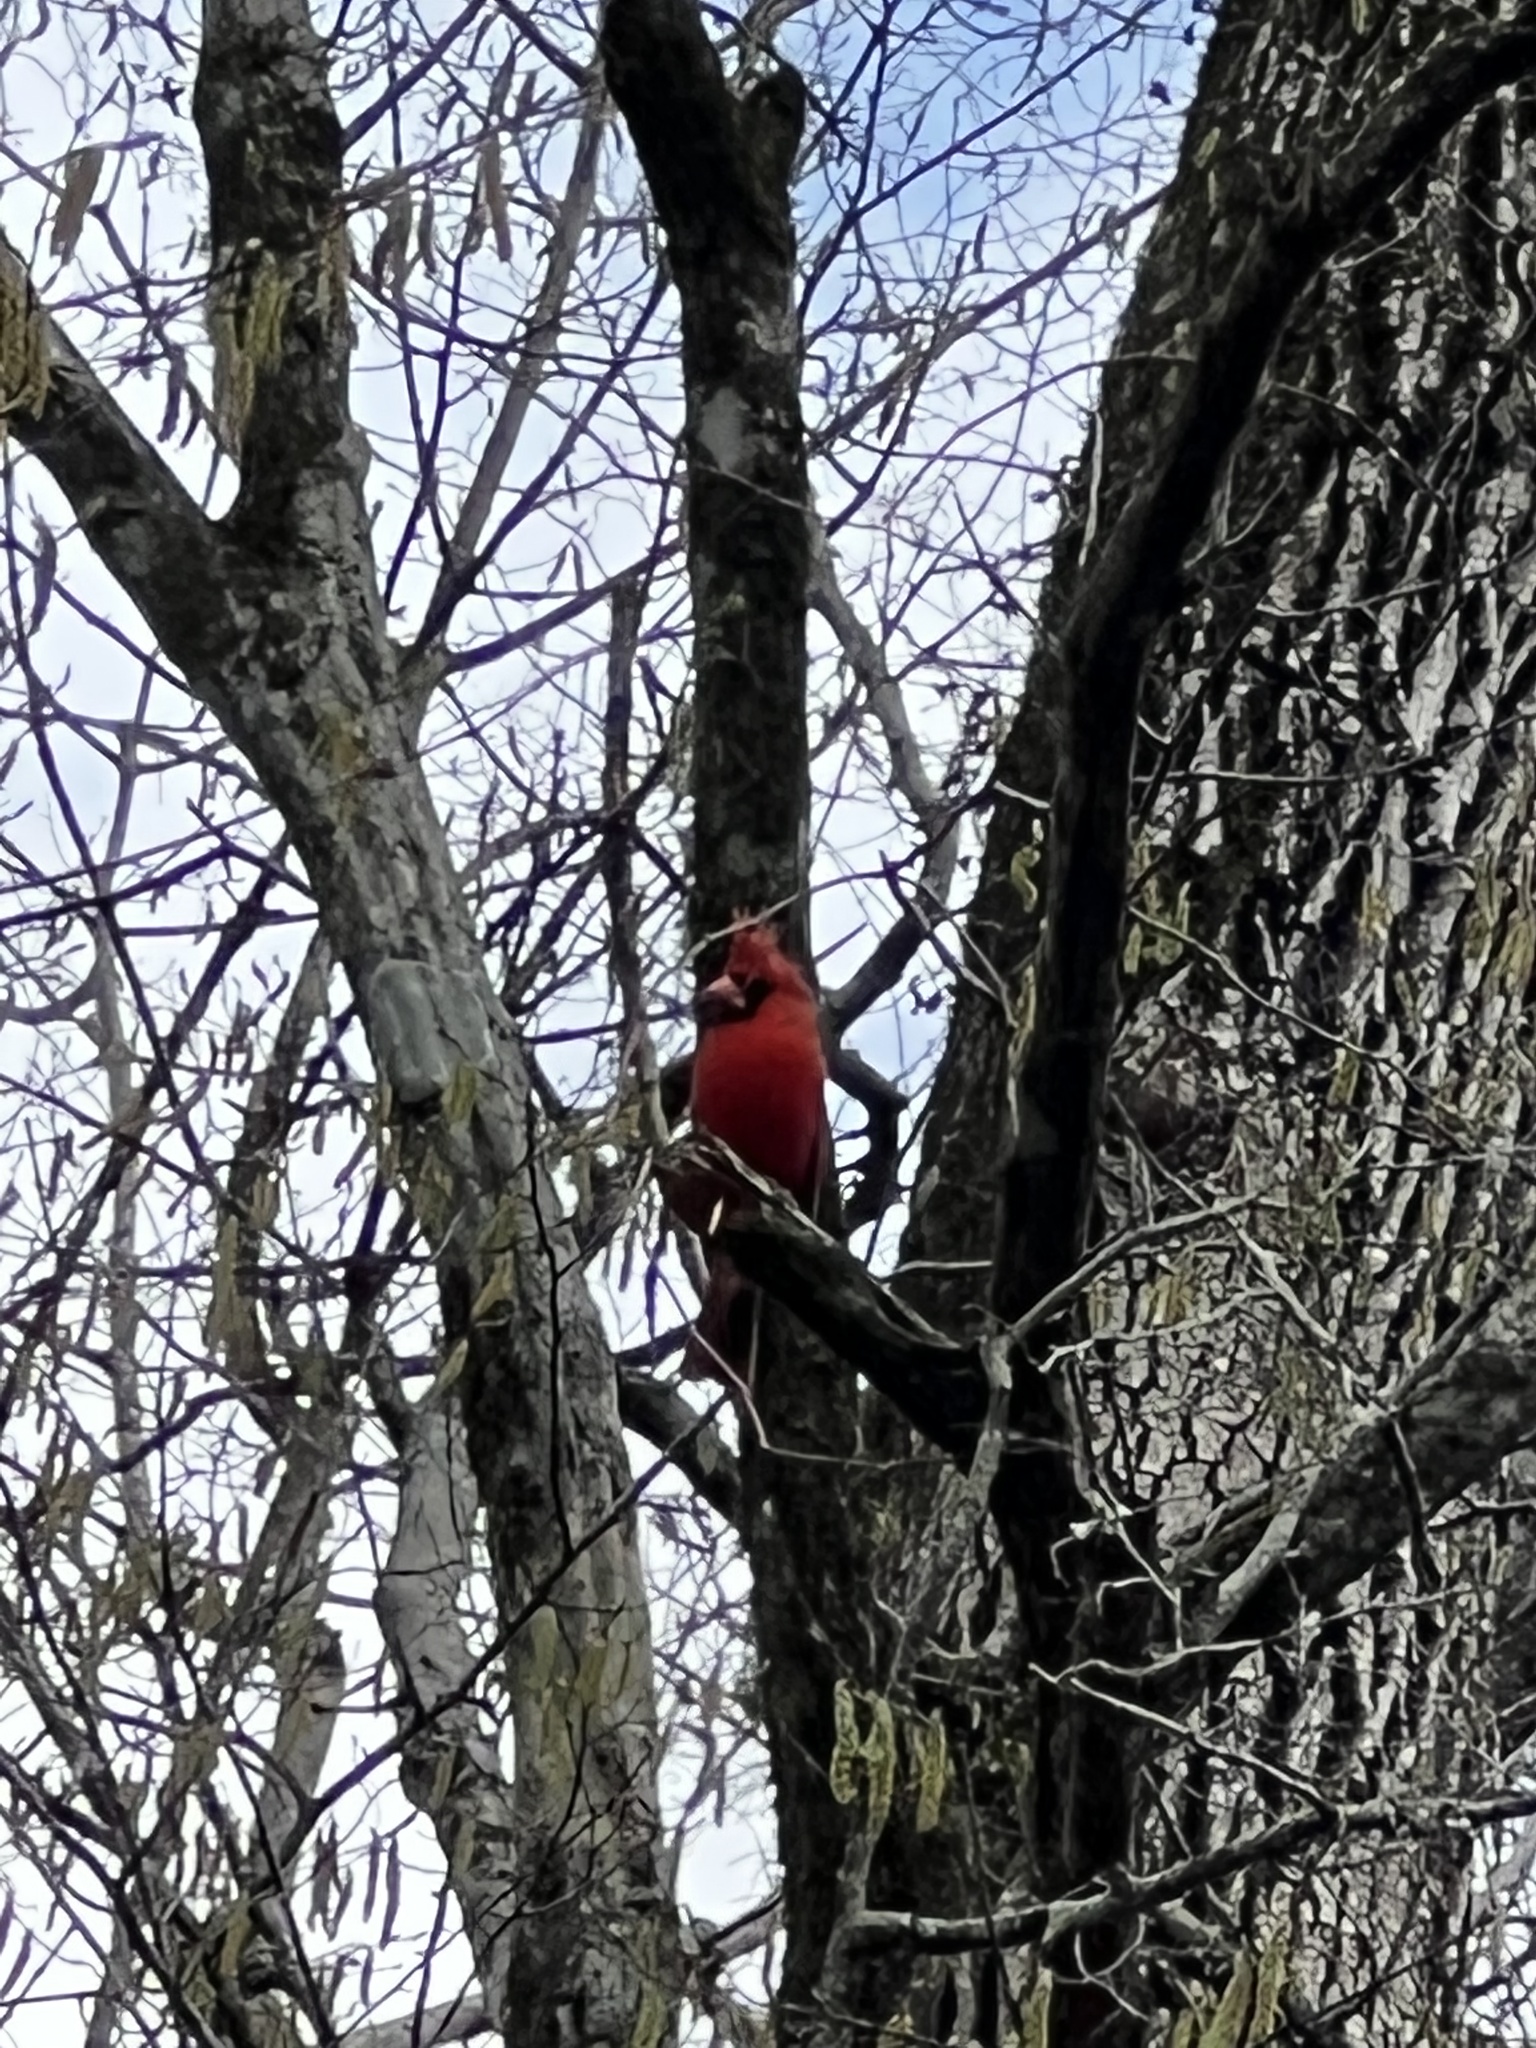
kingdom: Animalia
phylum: Chordata
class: Aves
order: Passeriformes
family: Cardinalidae
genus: Cardinalis
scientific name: Cardinalis cardinalis
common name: Northern cardinal
